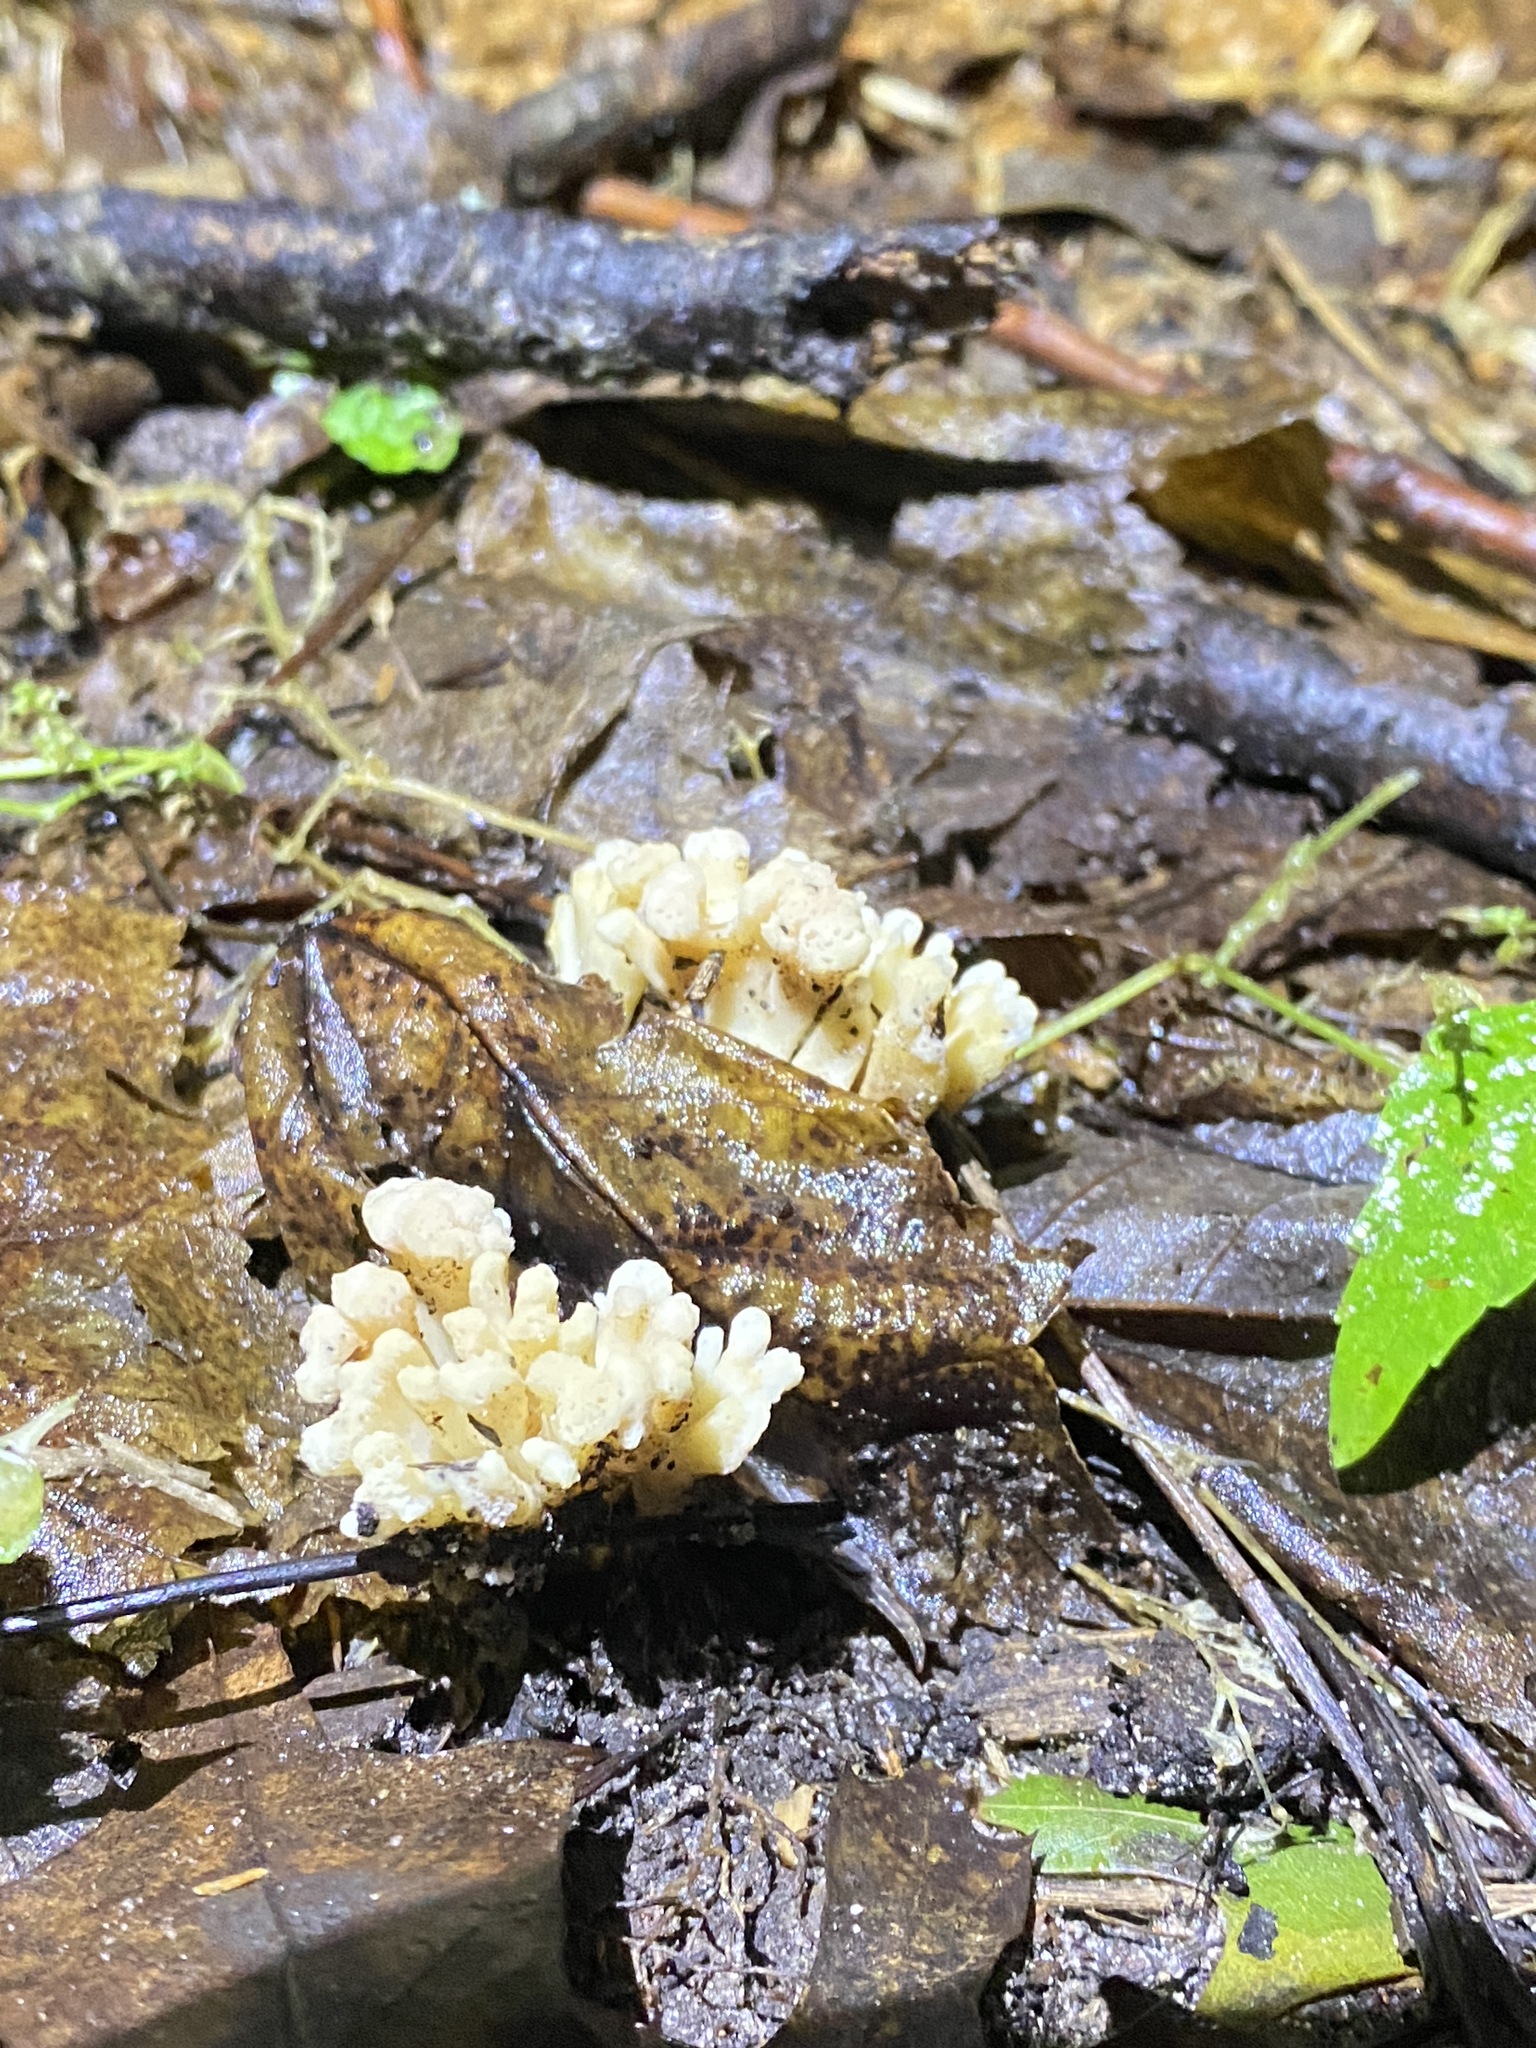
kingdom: Fungi
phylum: Basidiomycota
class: Agaricomycetes
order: Sebacinales
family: Sebacinaceae
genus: Sebacina
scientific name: Sebacina schweinitzii
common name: Jellied false coral fungus
